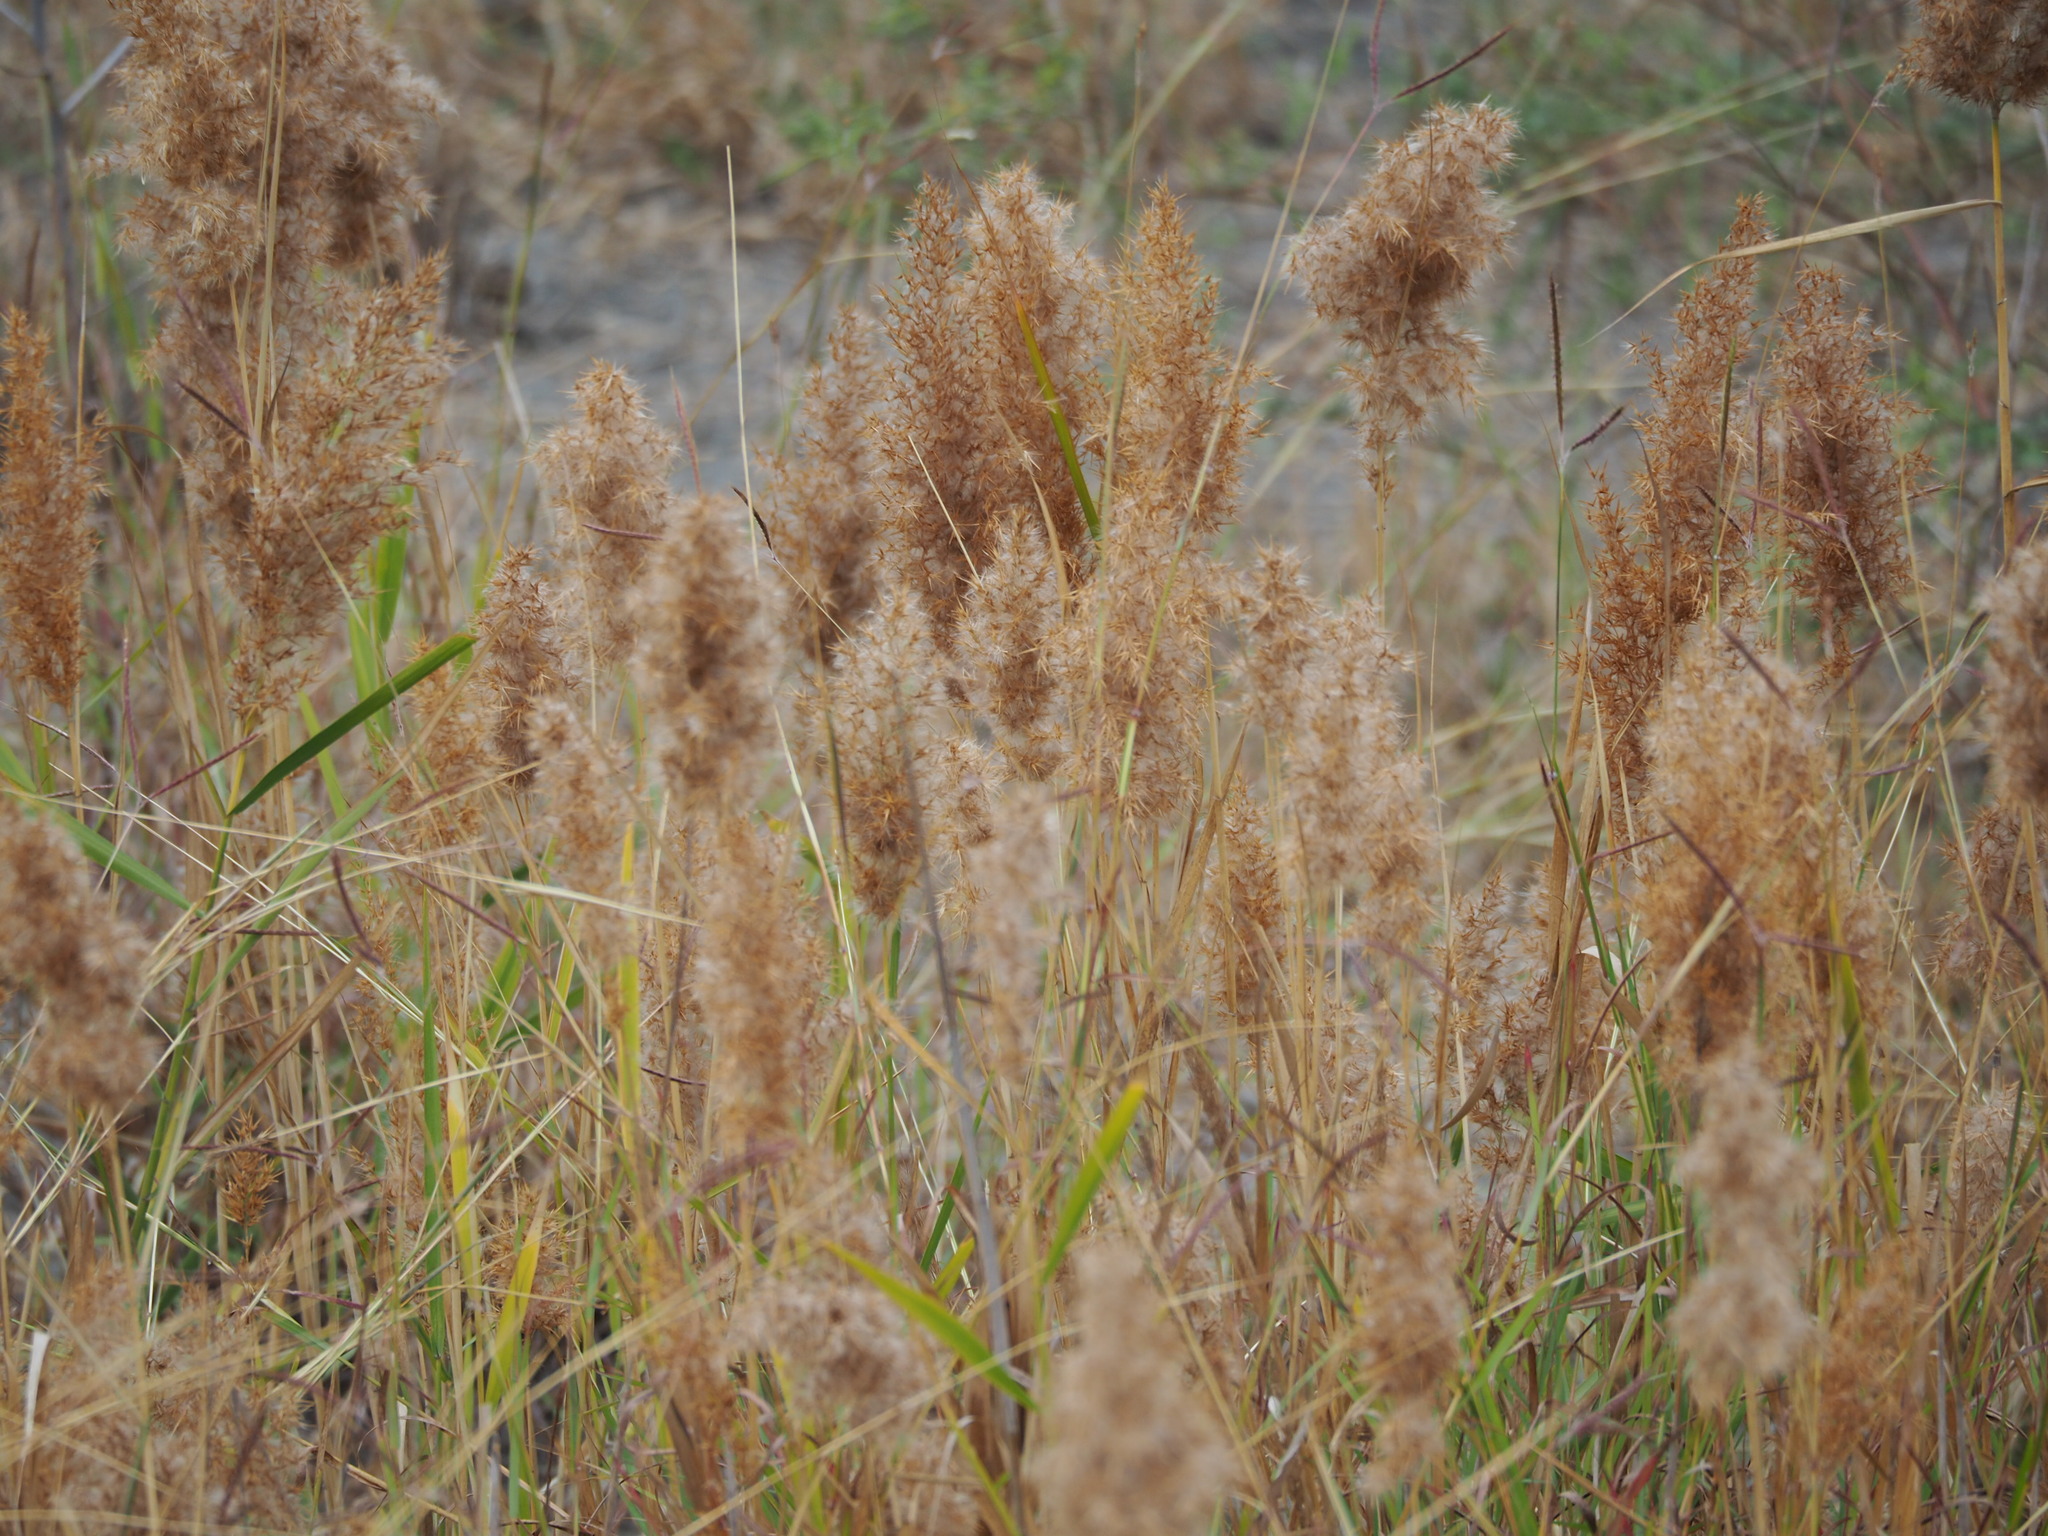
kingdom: Plantae
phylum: Tracheophyta
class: Liliopsida
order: Poales
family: Poaceae
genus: Phragmites
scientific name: Phragmites australis
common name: Common reed
